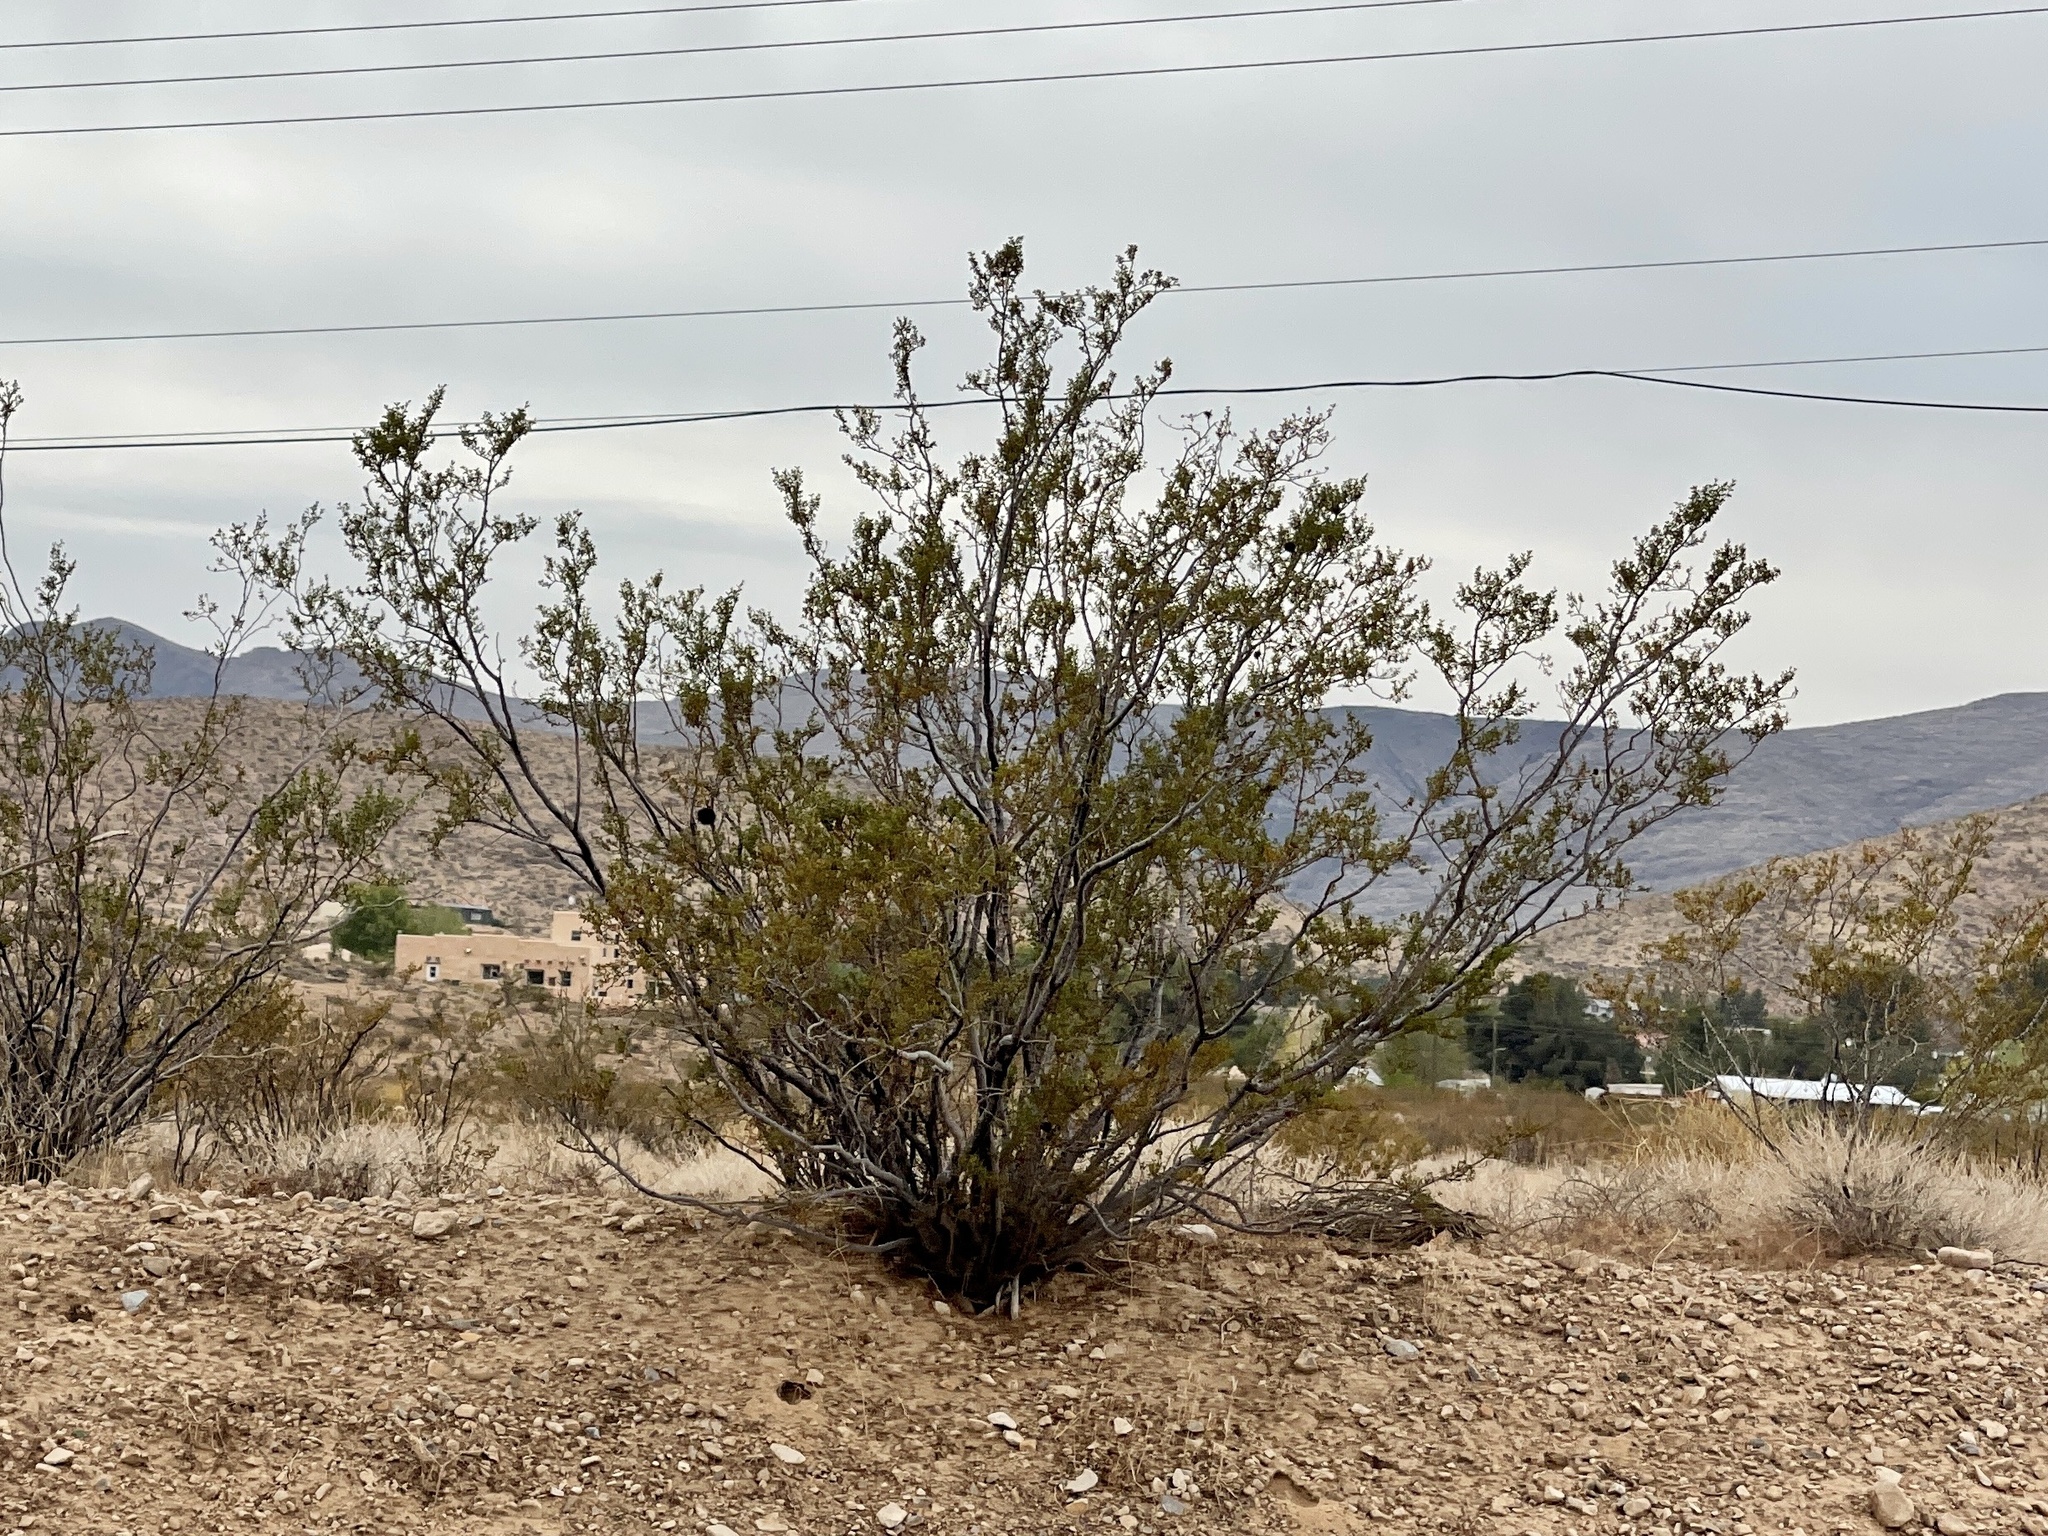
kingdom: Plantae
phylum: Tracheophyta
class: Magnoliopsida
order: Zygophyllales
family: Zygophyllaceae
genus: Larrea
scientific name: Larrea tridentata
